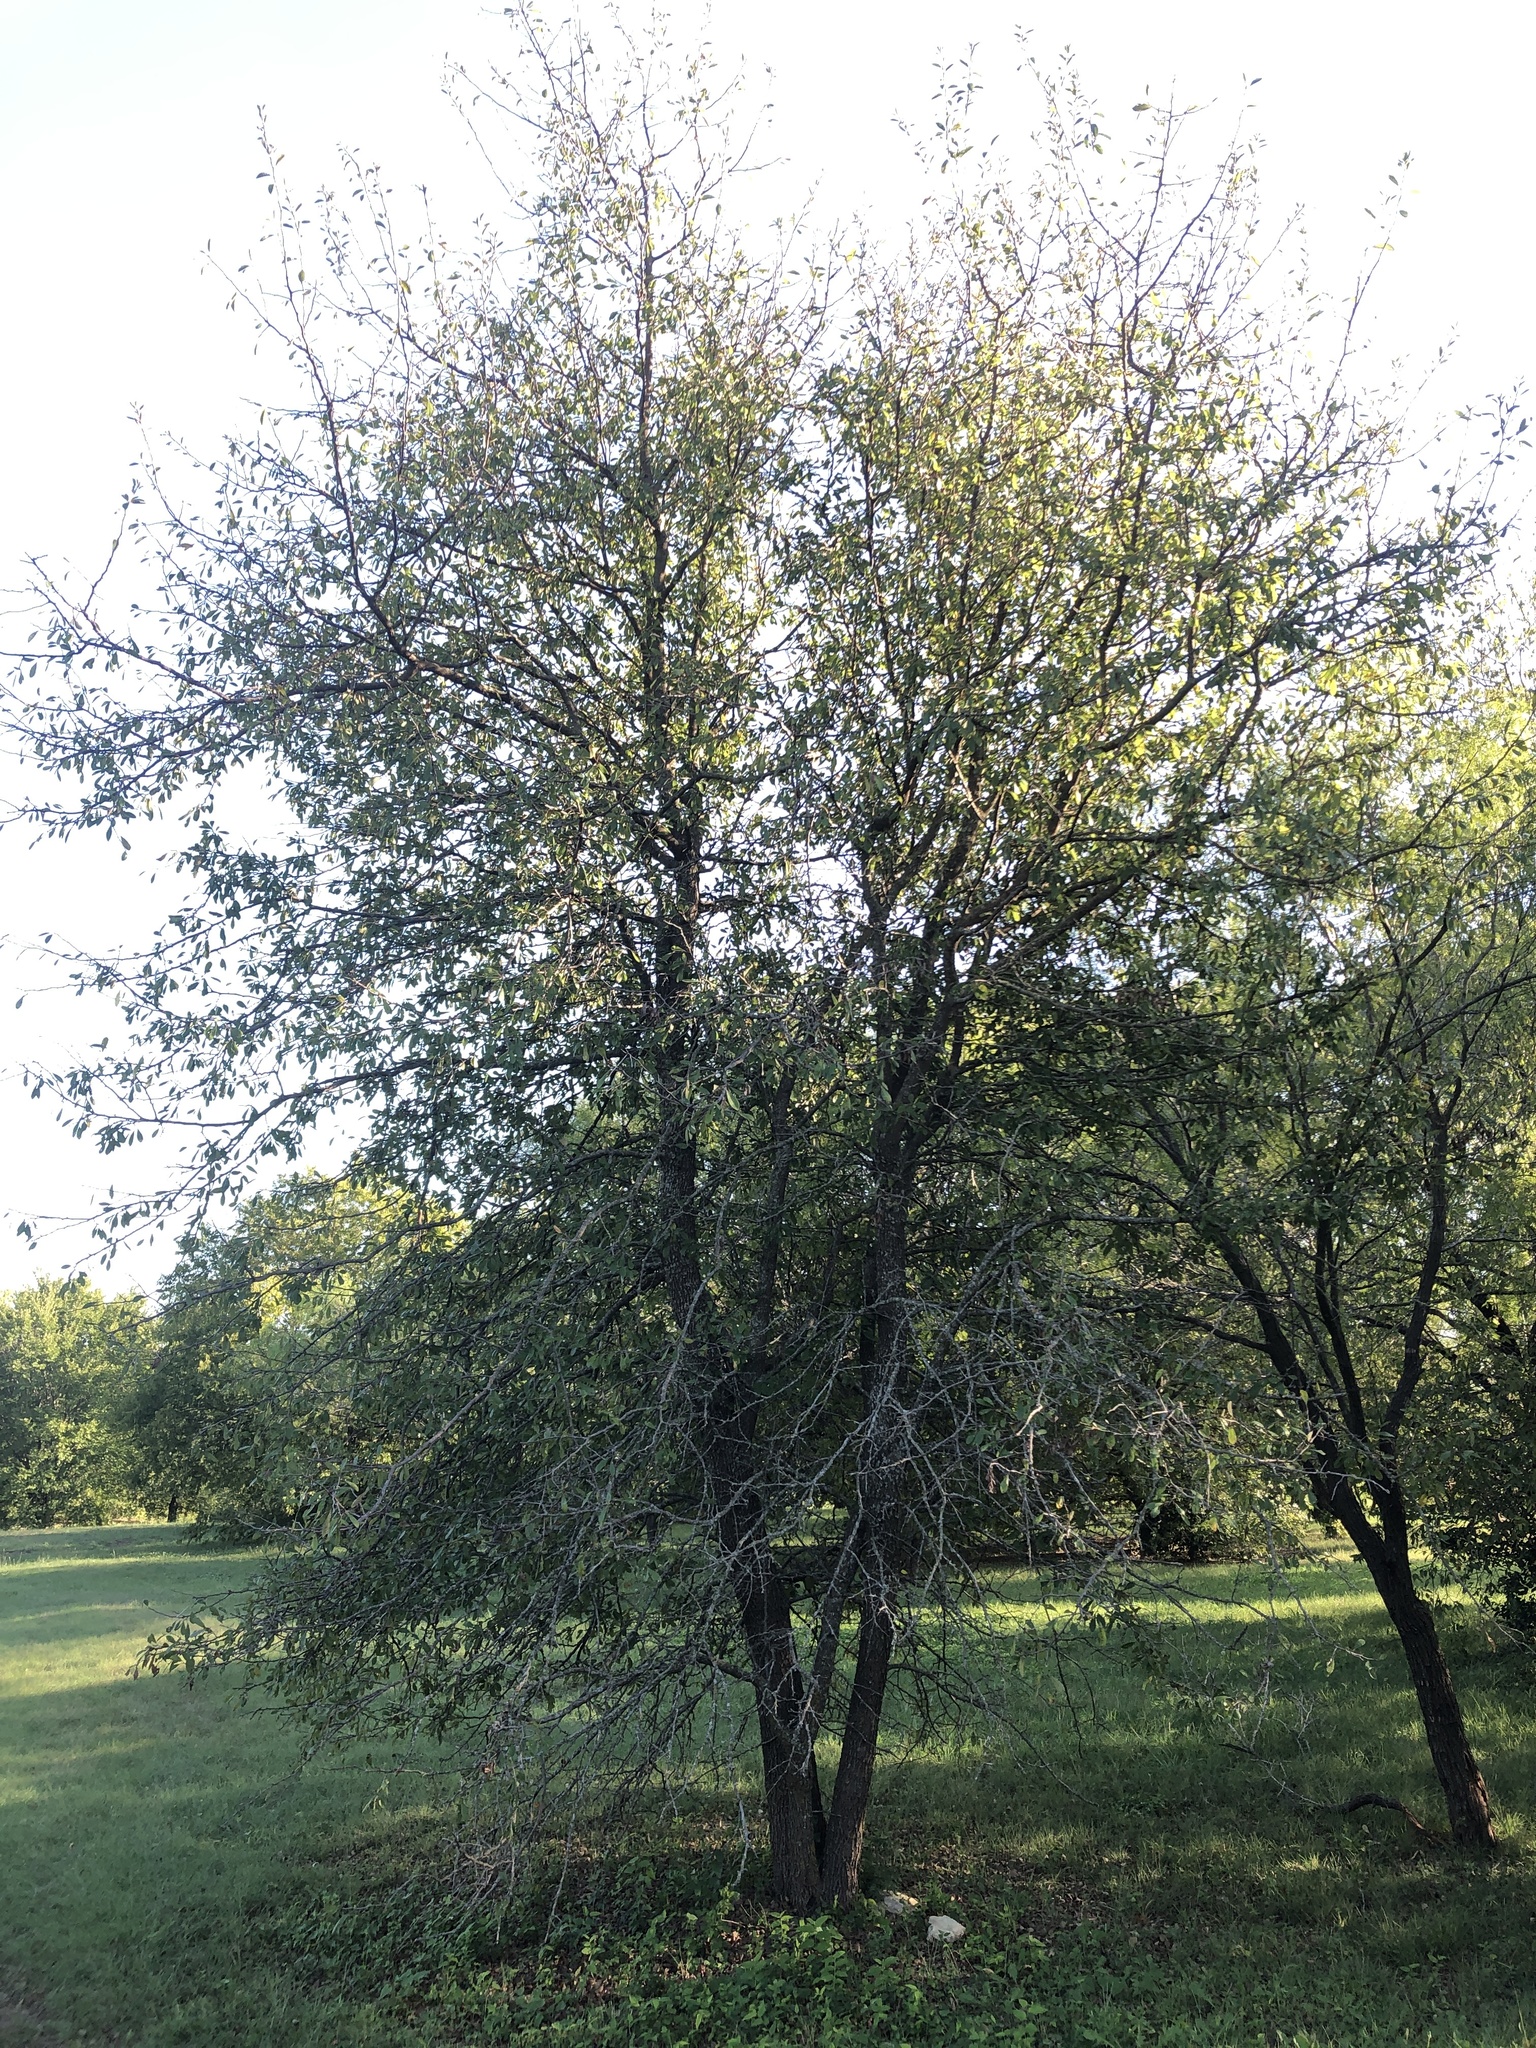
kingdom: Plantae
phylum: Tracheophyta
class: Magnoliopsida
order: Ericales
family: Sapotaceae
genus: Sideroxylon
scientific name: Sideroxylon lanuginosum
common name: Chittamwood
